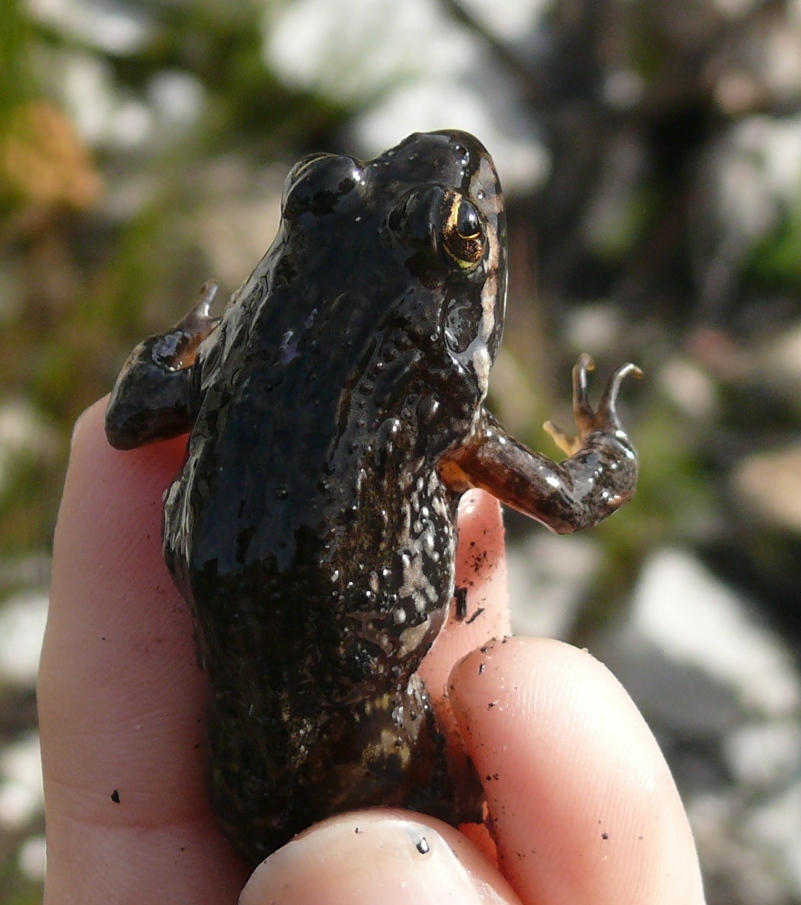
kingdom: Animalia
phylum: Chordata
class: Amphibia
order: Anura
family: Pyxicephalidae
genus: Amietia
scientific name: Amietia fuscigula
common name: Cape rana
